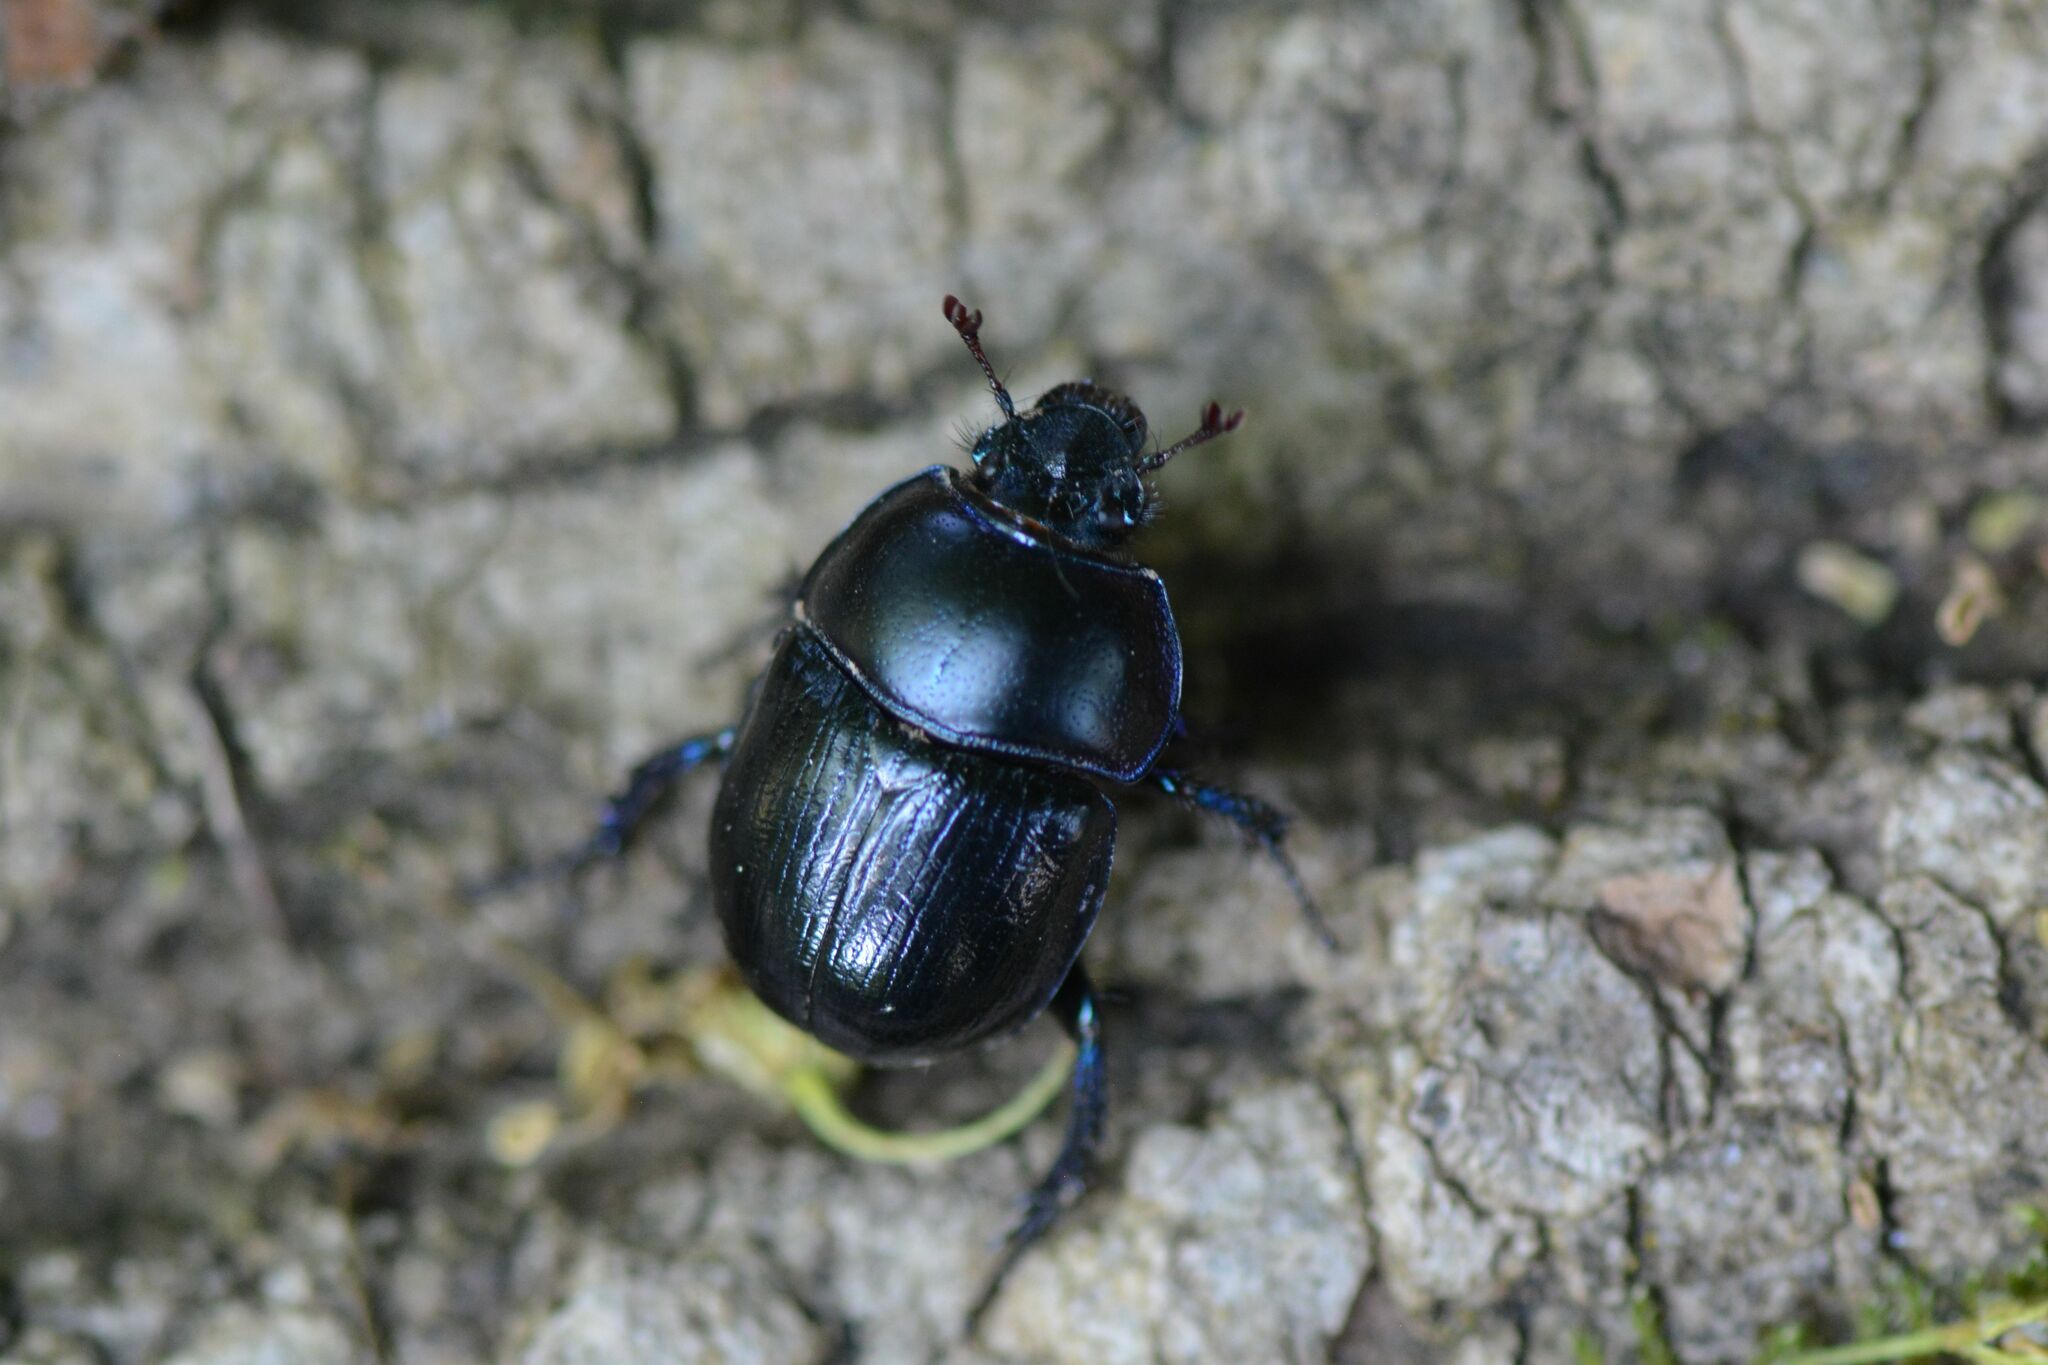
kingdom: Animalia
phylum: Arthropoda
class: Insecta
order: Coleoptera
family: Geotrupidae
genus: Anoplotrupes
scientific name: Anoplotrupes stercorosus
